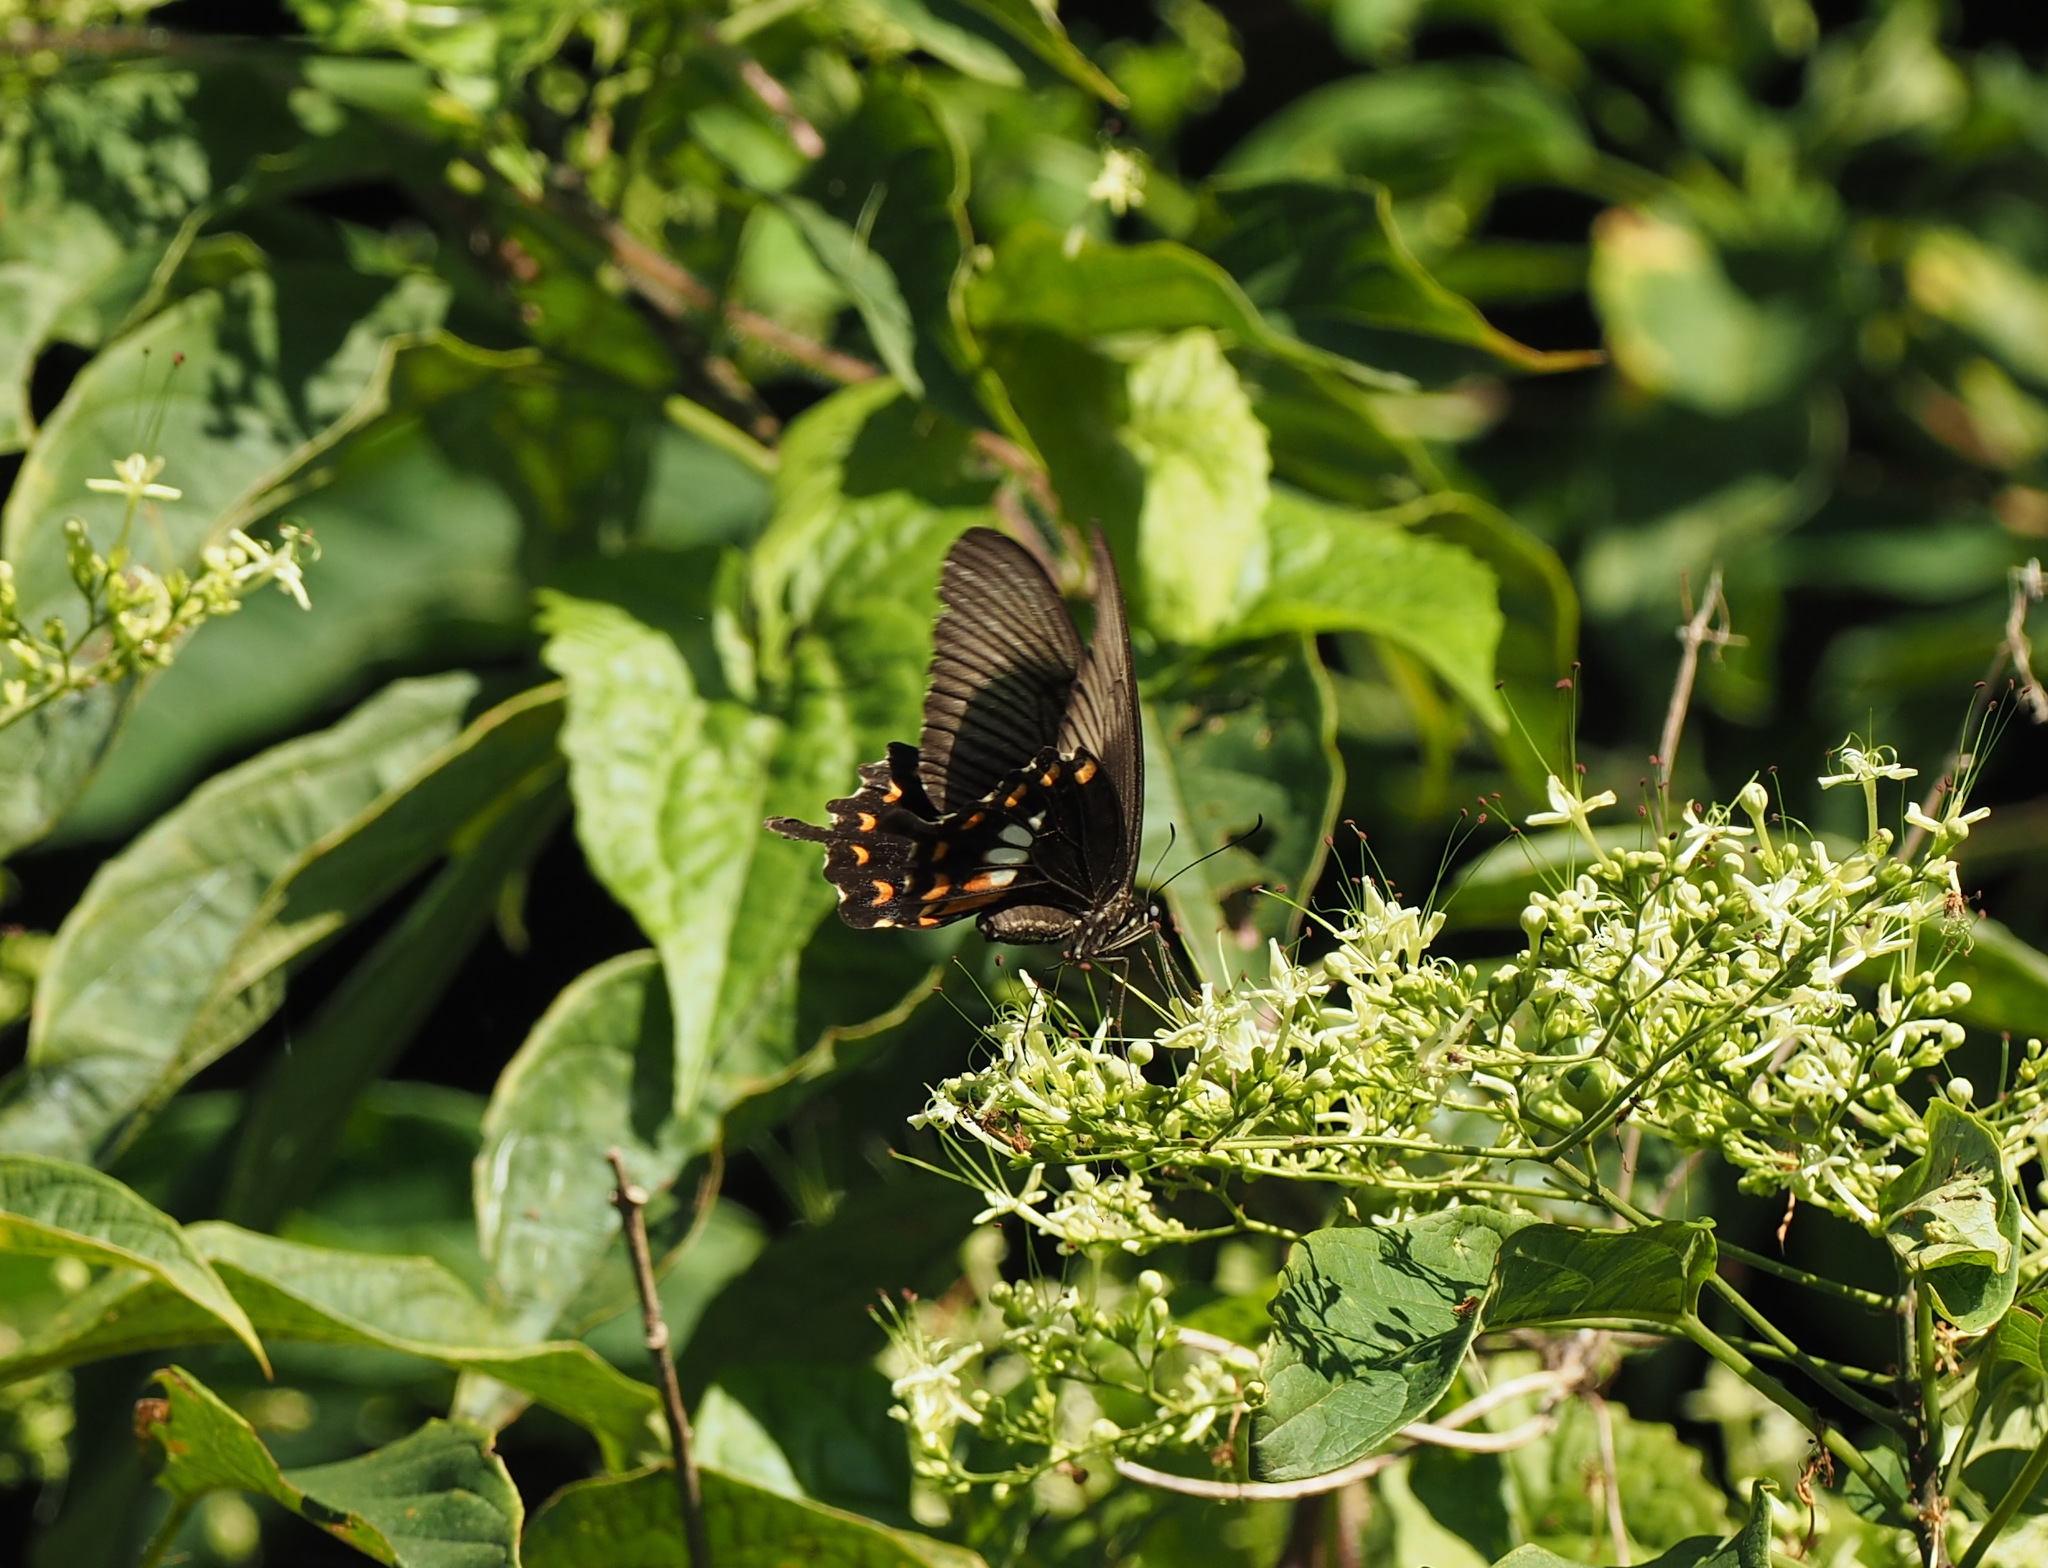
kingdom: Animalia
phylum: Arthropoda
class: Insecta
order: Lepidoptera
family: Papilionidae
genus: Papilio
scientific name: Papilio polytes
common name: Common mormon
